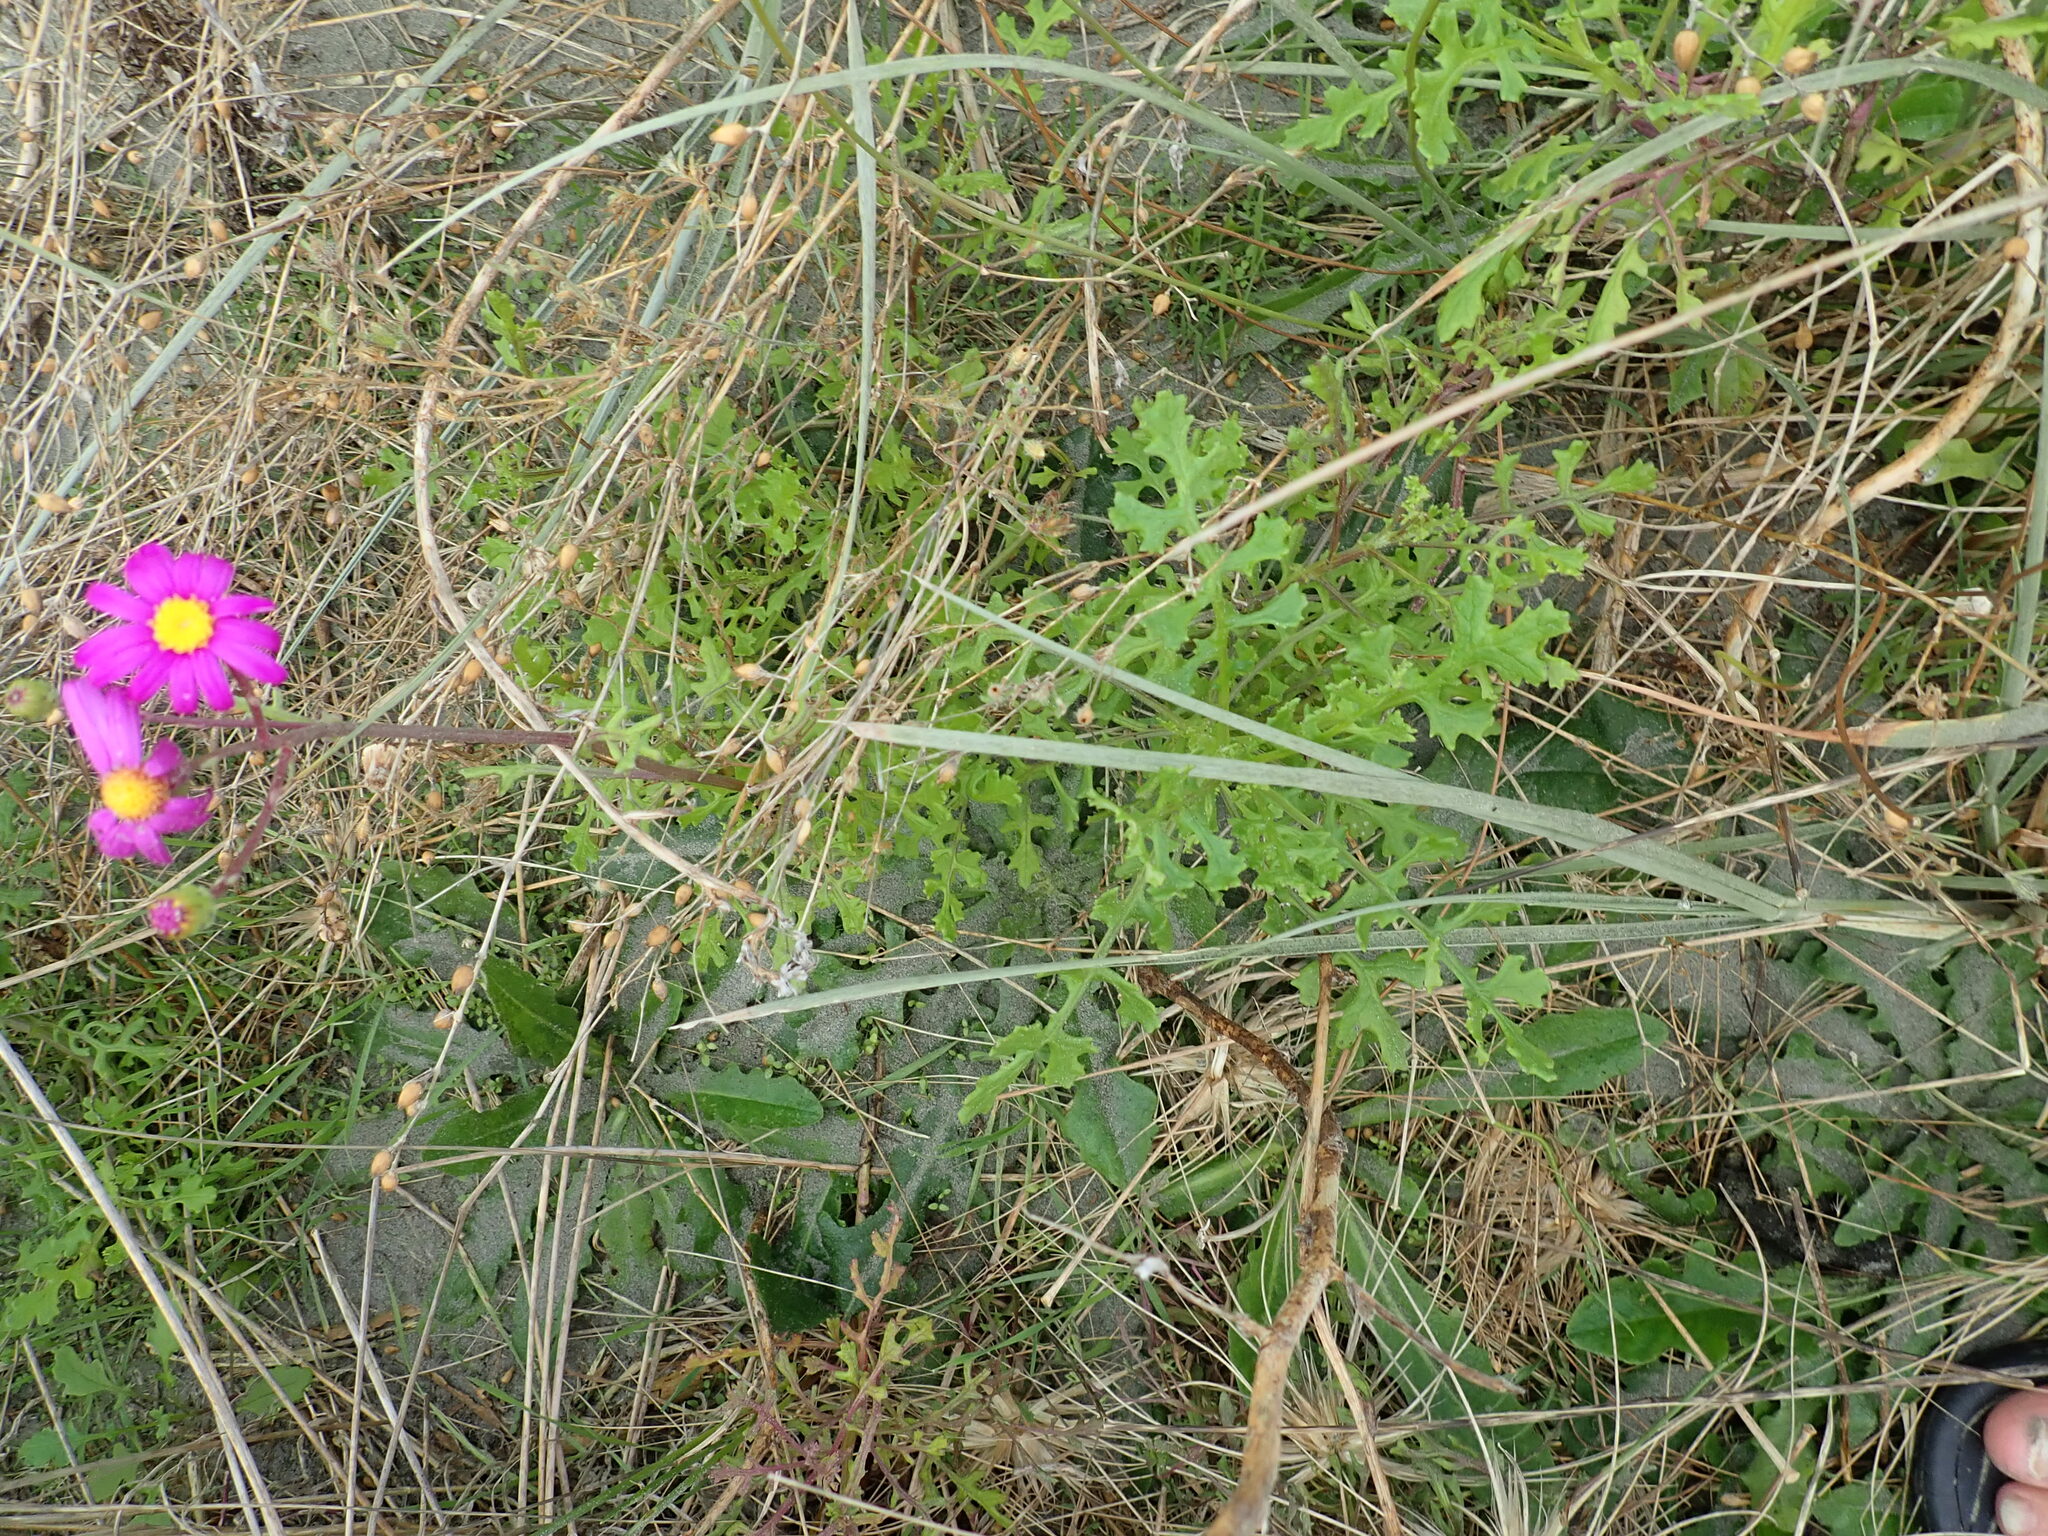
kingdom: Plantae
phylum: Tracheophyta
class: Magnoliopsida
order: Asterales
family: Asteraceae
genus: Senecio
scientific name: Senecio elegans
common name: Purple groundsel
